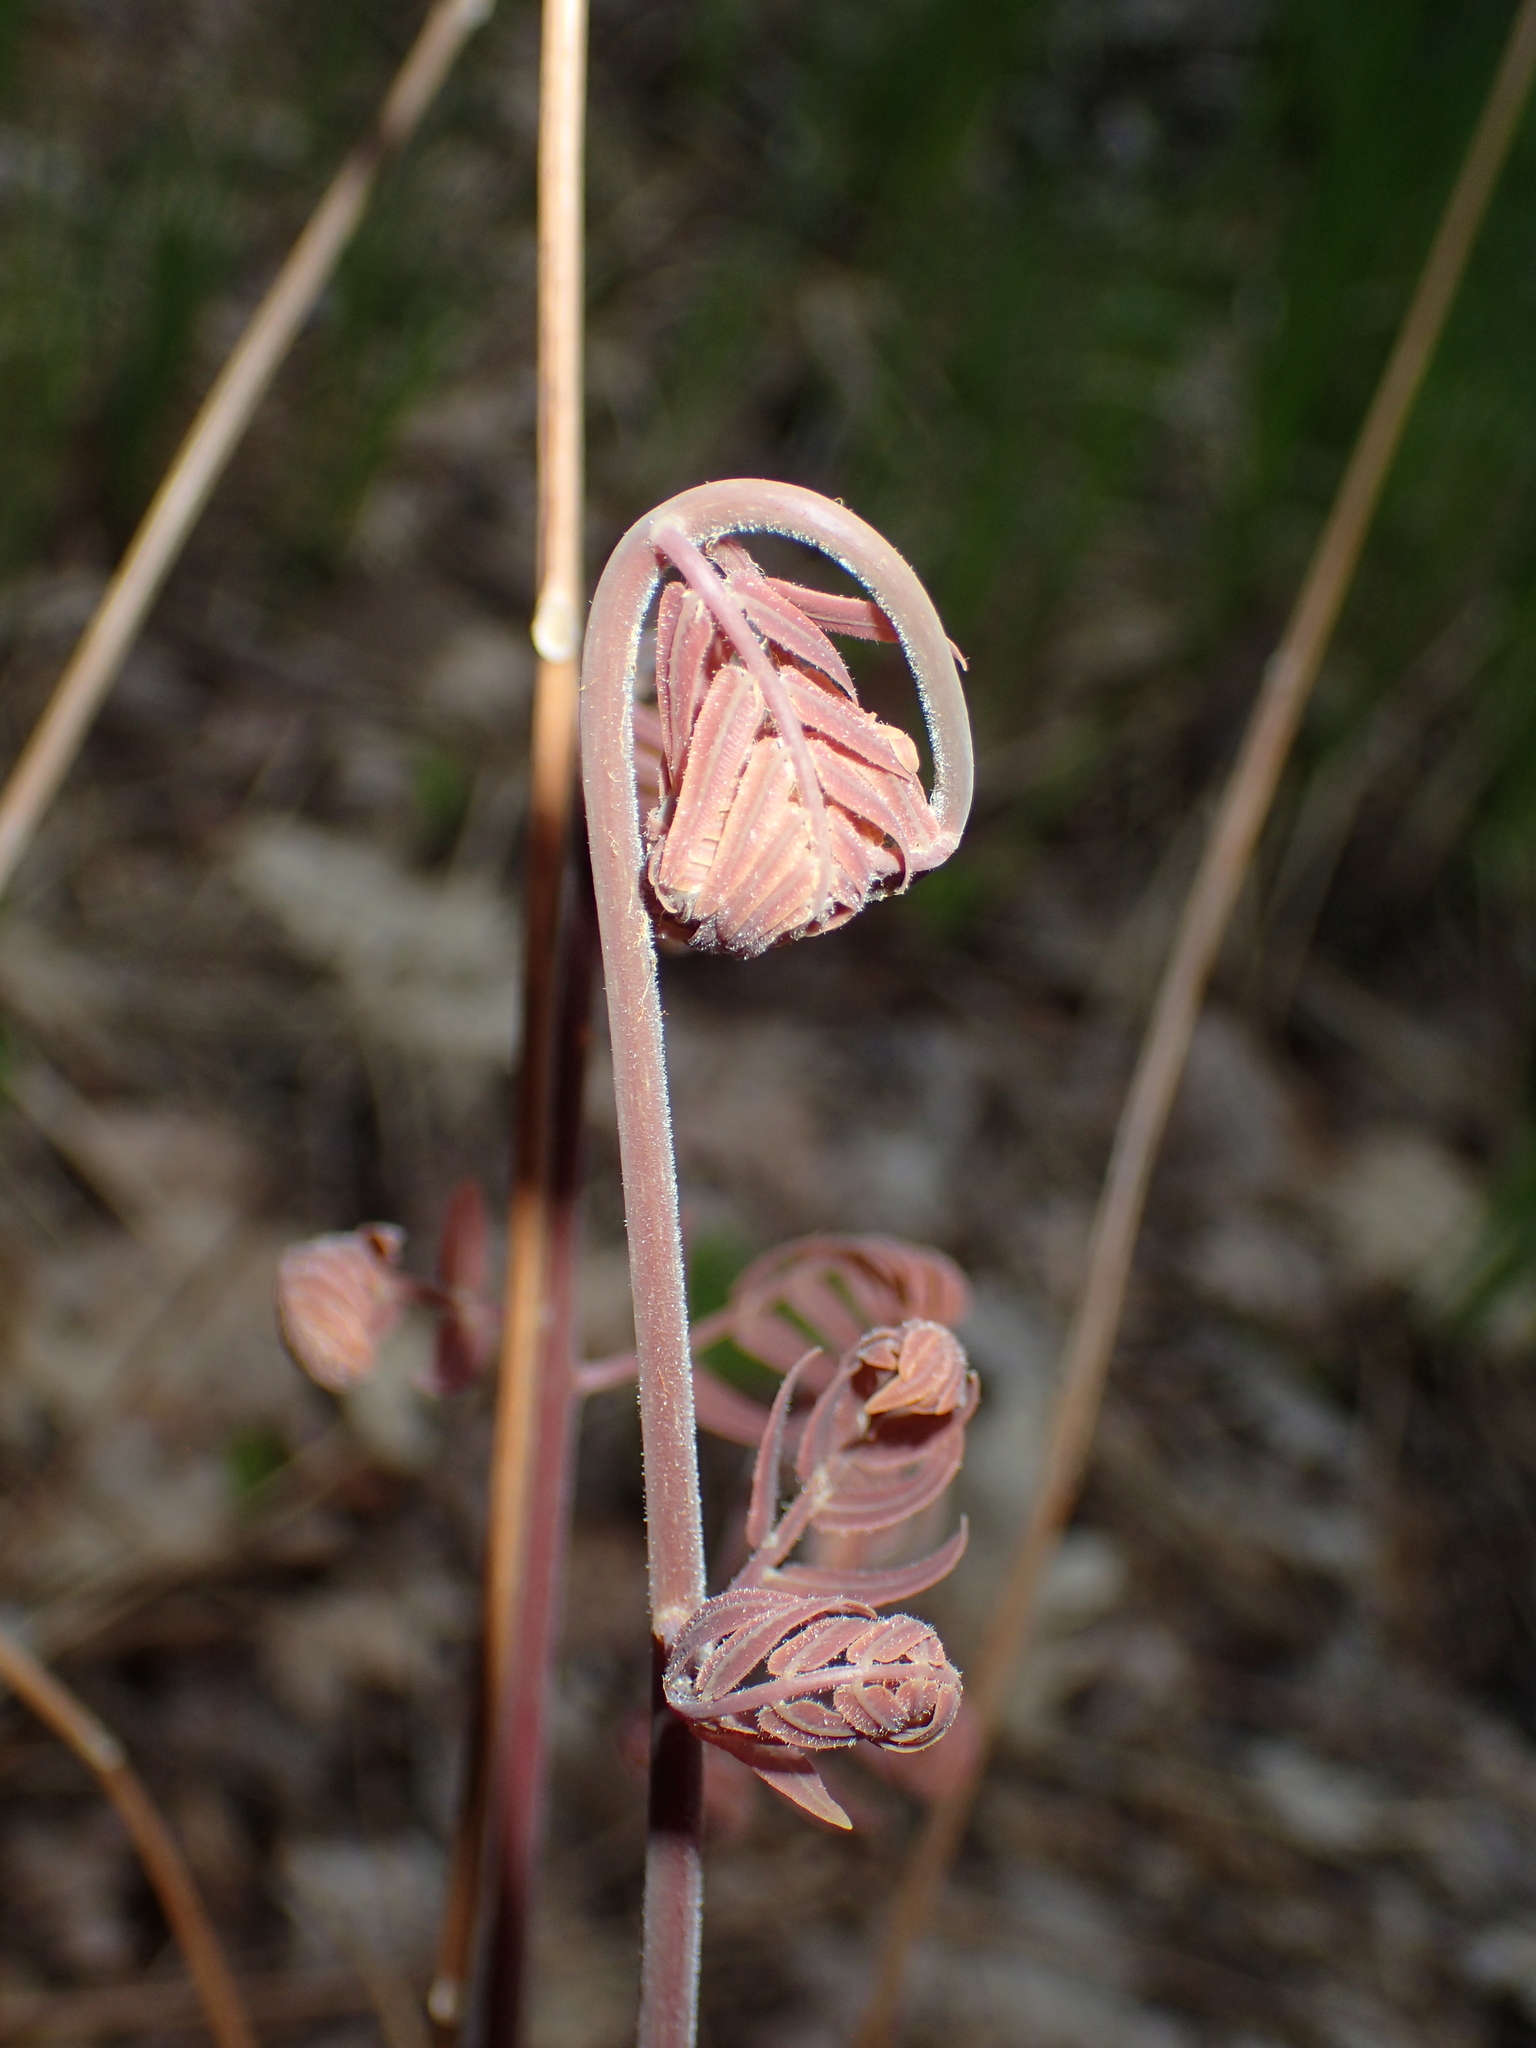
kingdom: Plantae
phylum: Tracheophyta
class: Polypodiopsida
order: Osmundales
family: Osmundaceae
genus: Osmunda
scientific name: Osmunda spectabilis
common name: American royal fern
